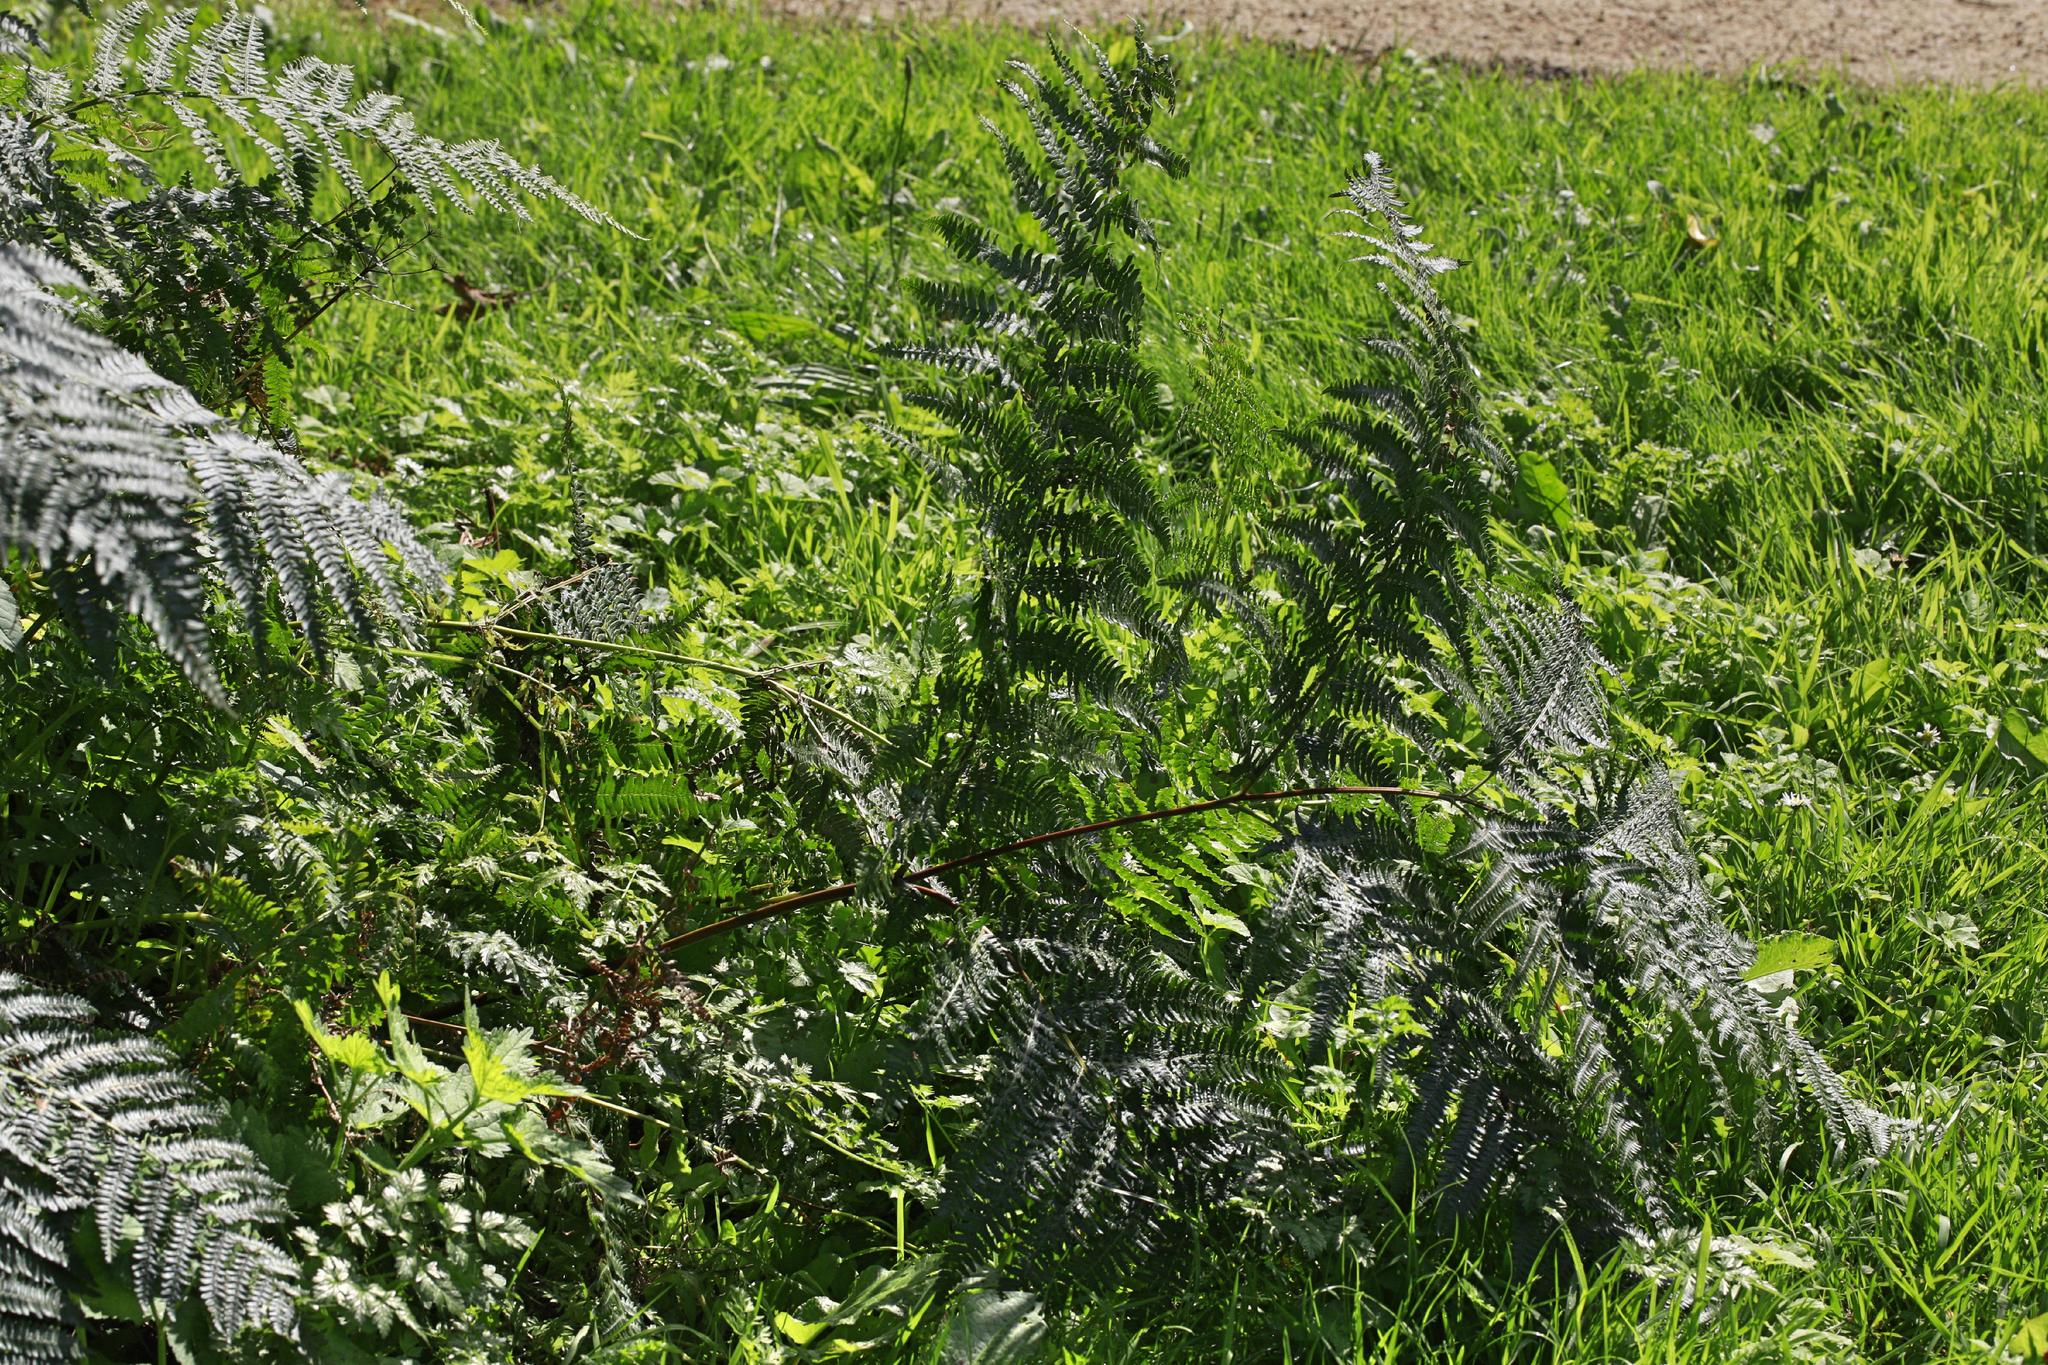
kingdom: Plantae
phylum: Tracheophyta
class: Polypodiopsida
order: Polypodiales
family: Dennstaedtiaceae
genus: Pteridium
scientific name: Pteridium aquilinum
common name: Bracken
